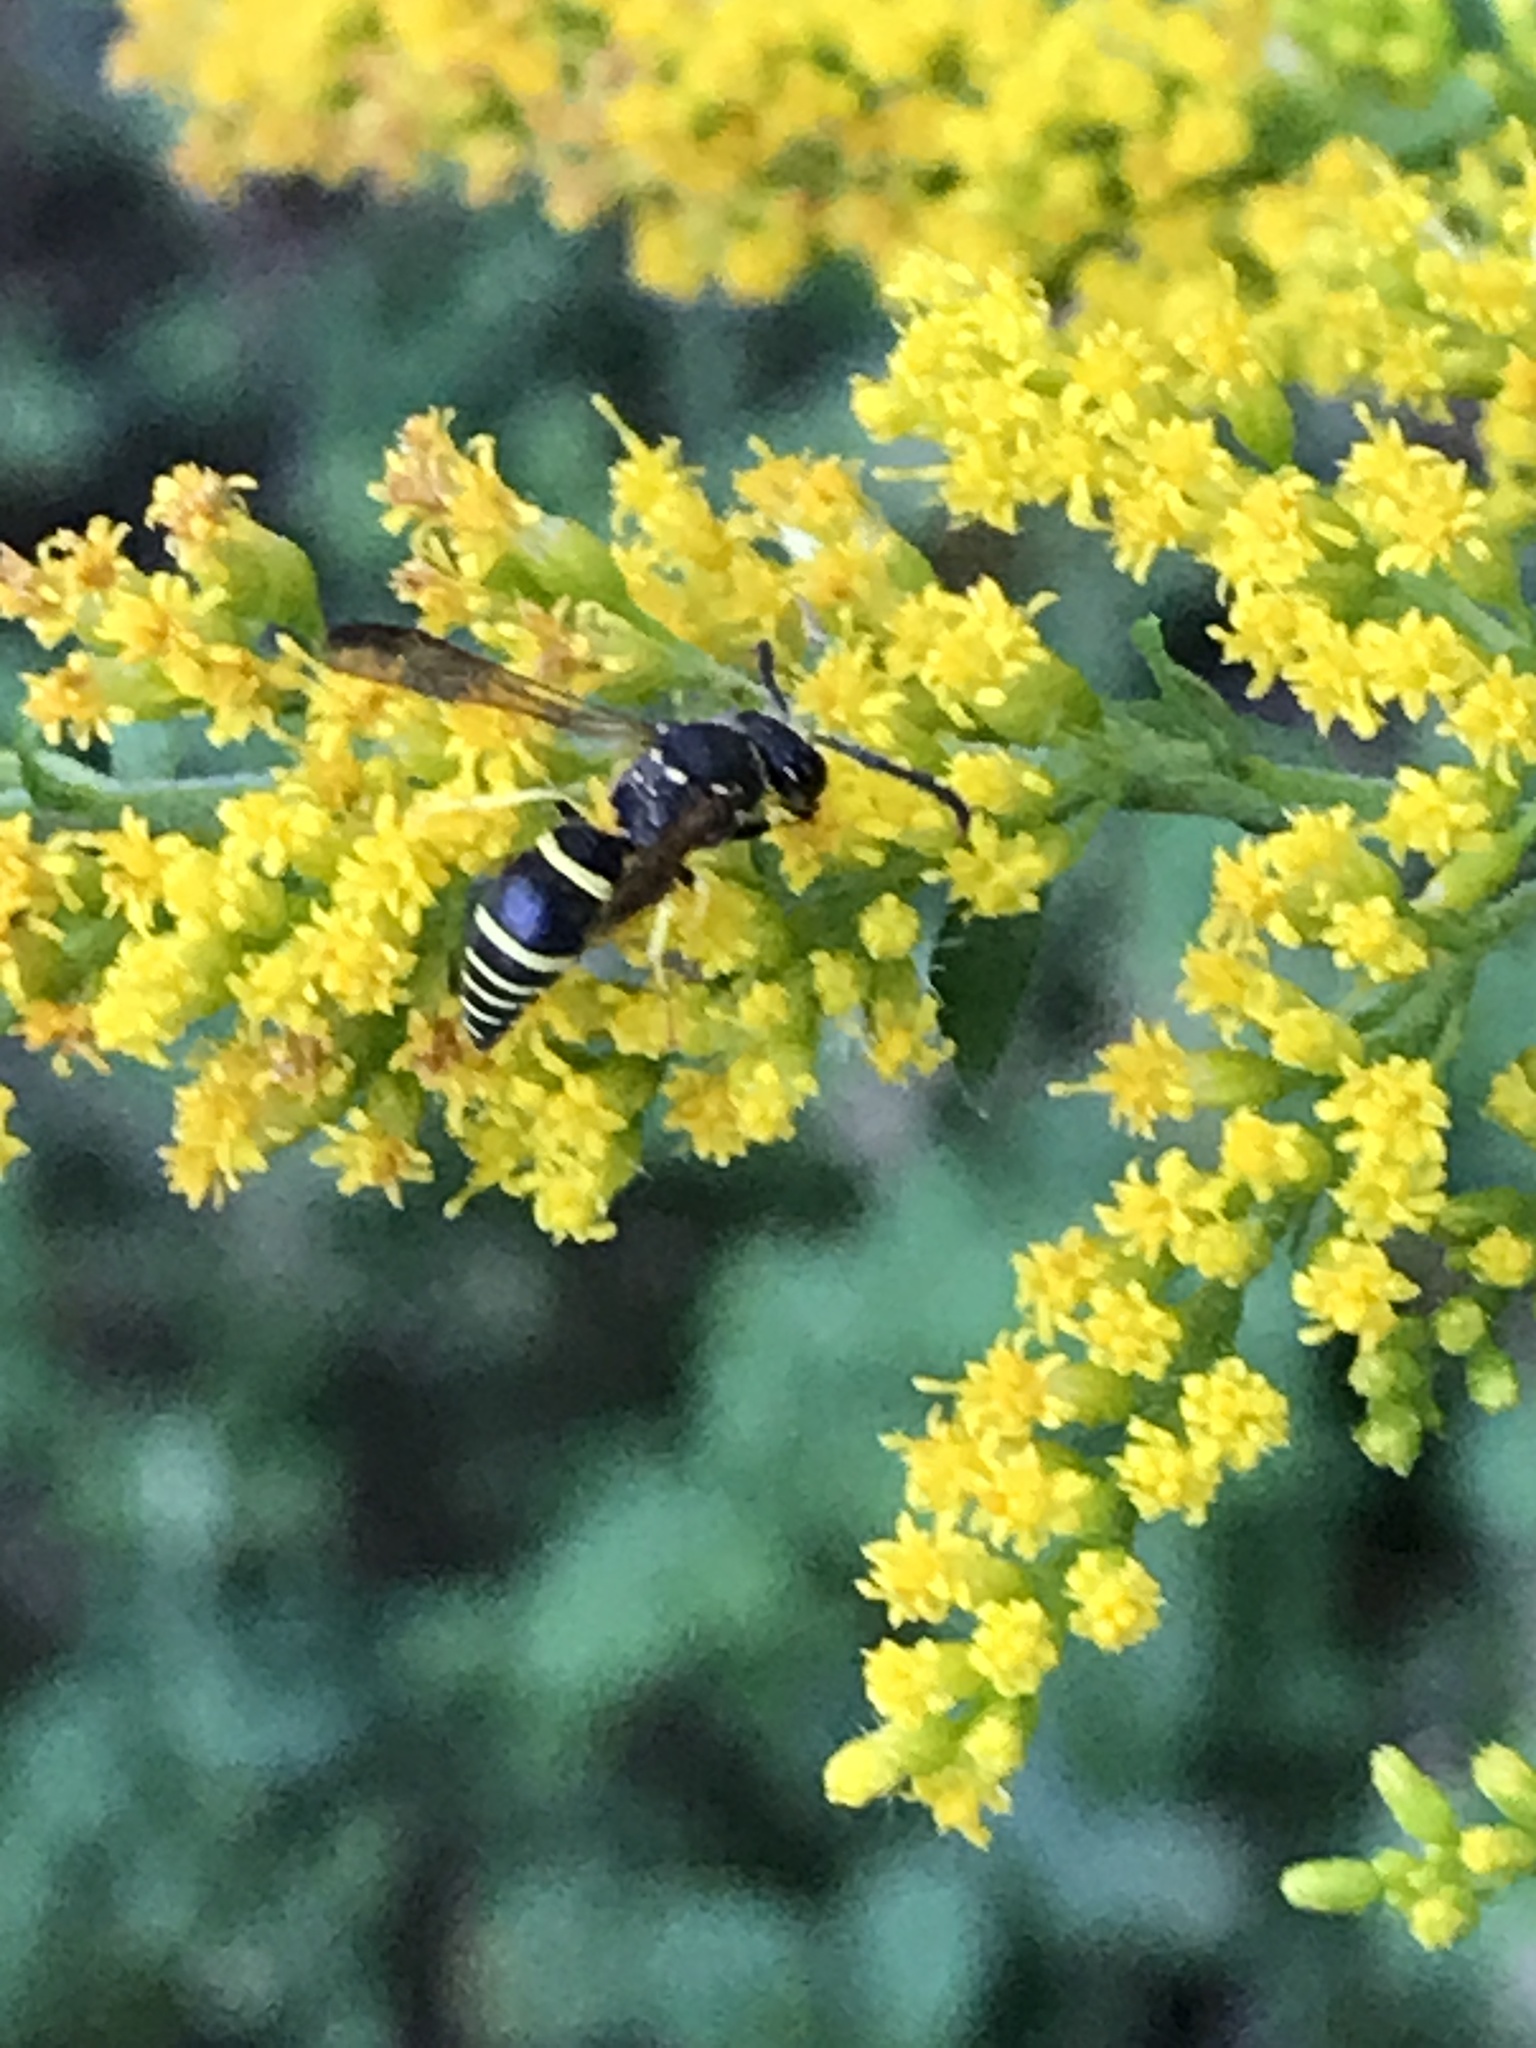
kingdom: Animalia
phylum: Arthropoda
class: Insecta
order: Hymenoptera
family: Vespidae
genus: Ancistrocerus
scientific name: Ancistrocerus
